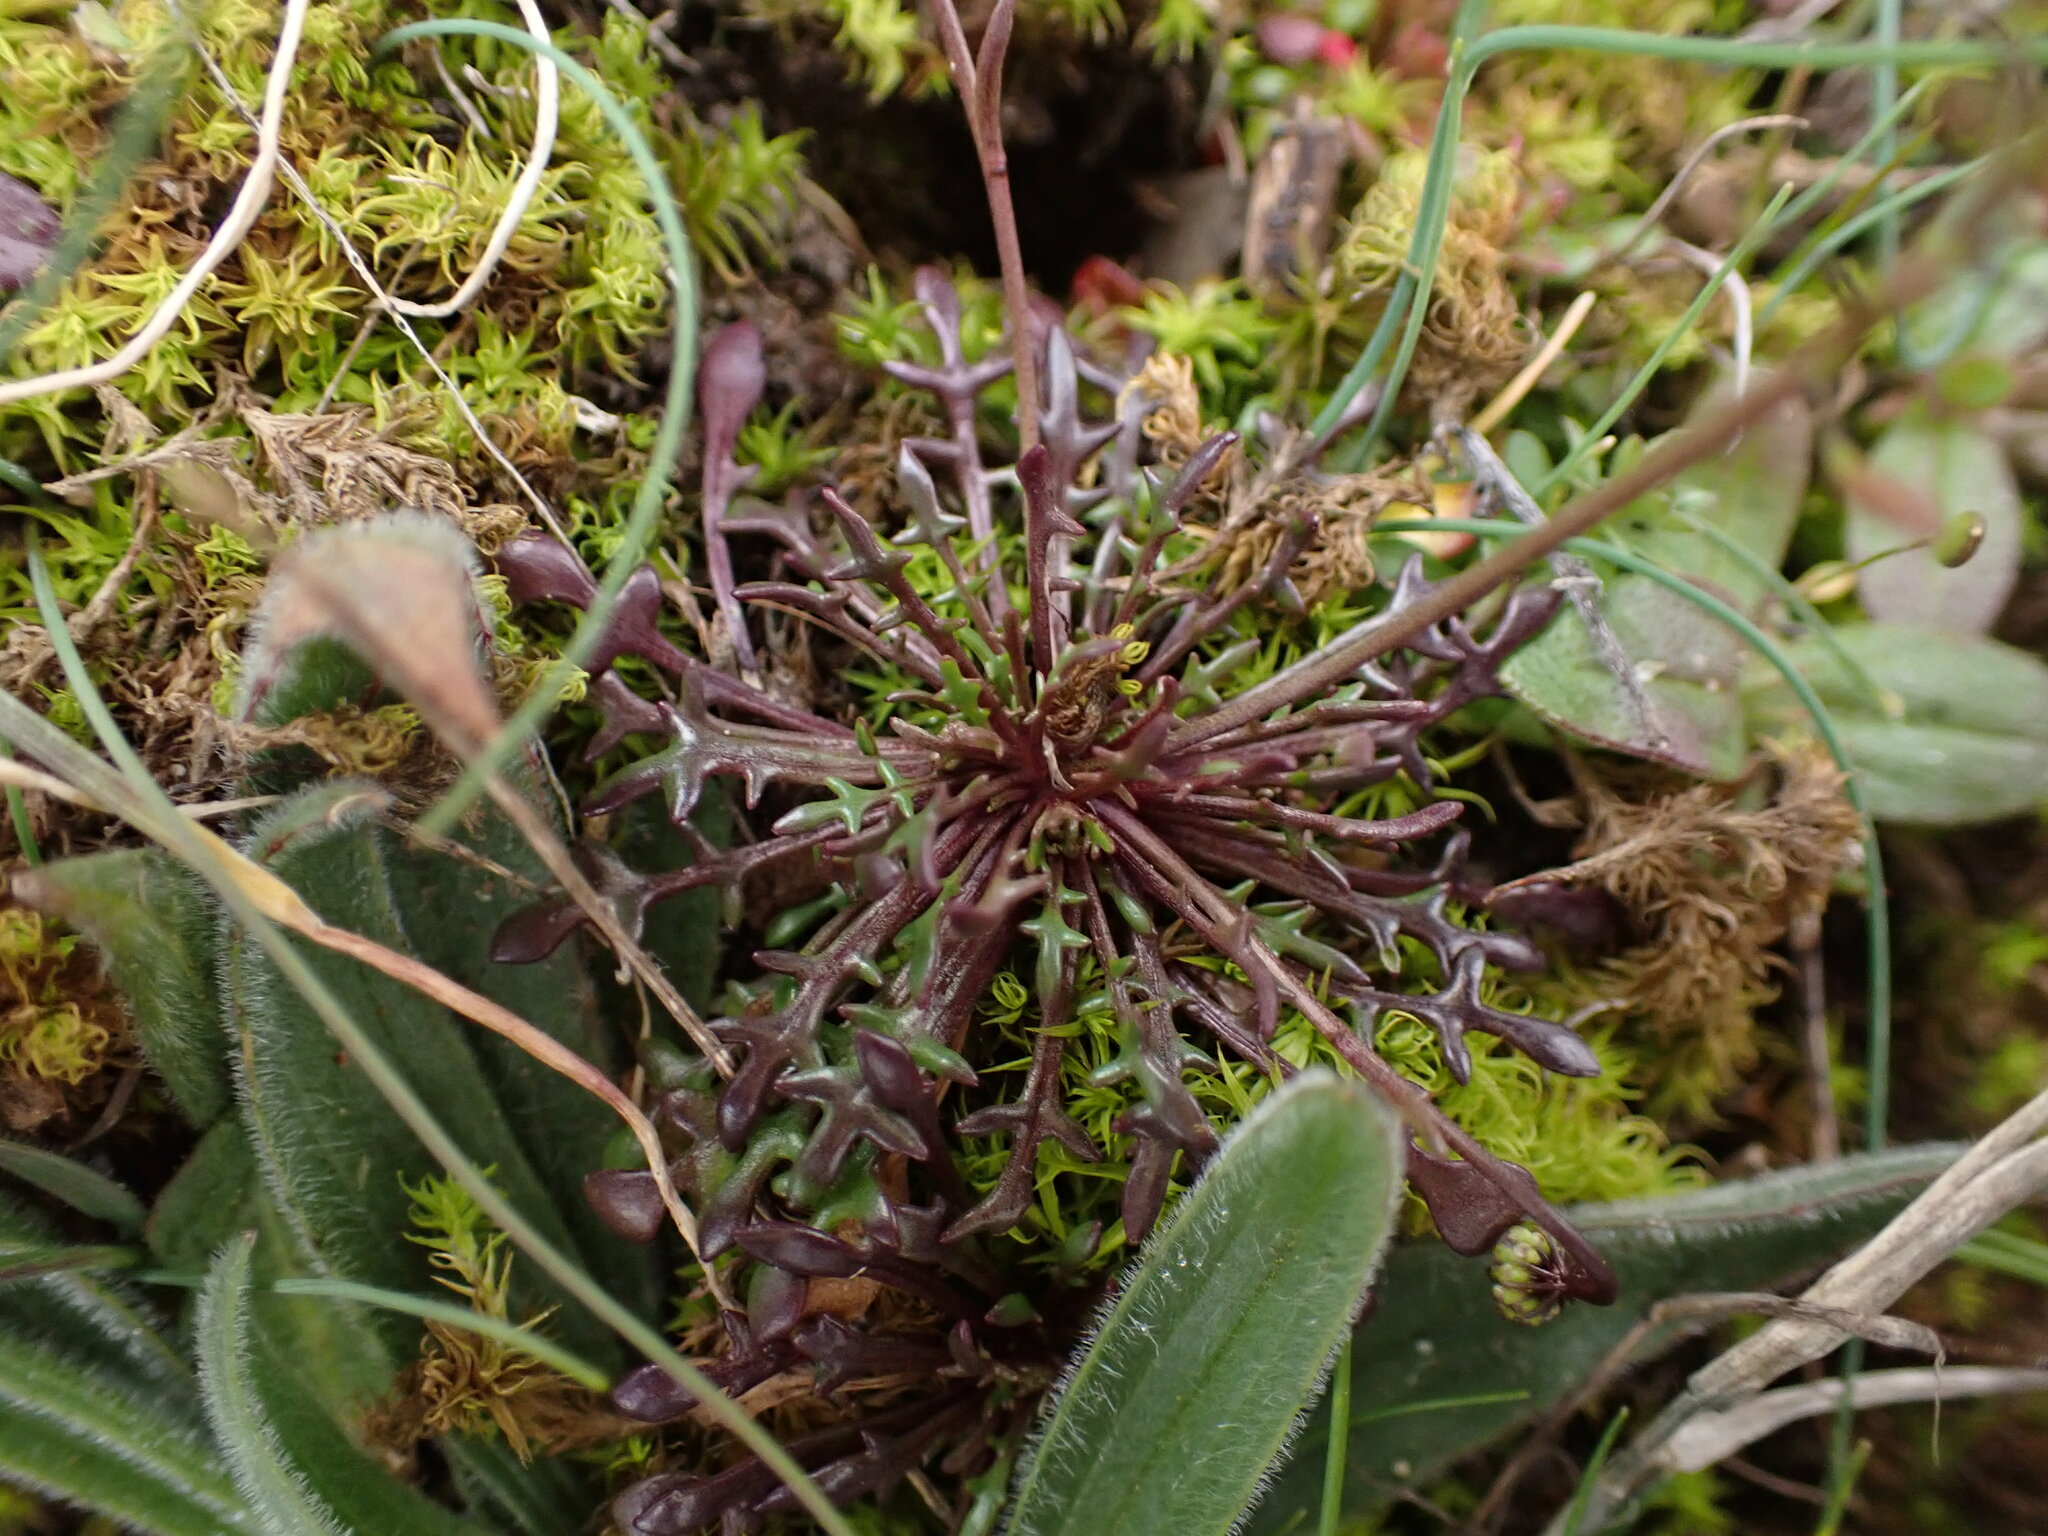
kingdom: Plantae
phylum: Tracheophyta
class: Magnoliopsida
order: Brassicales
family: Brassicaceae
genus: Teesdalia
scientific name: Teesdalia coronopifolia
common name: Lesser shepherdscress
